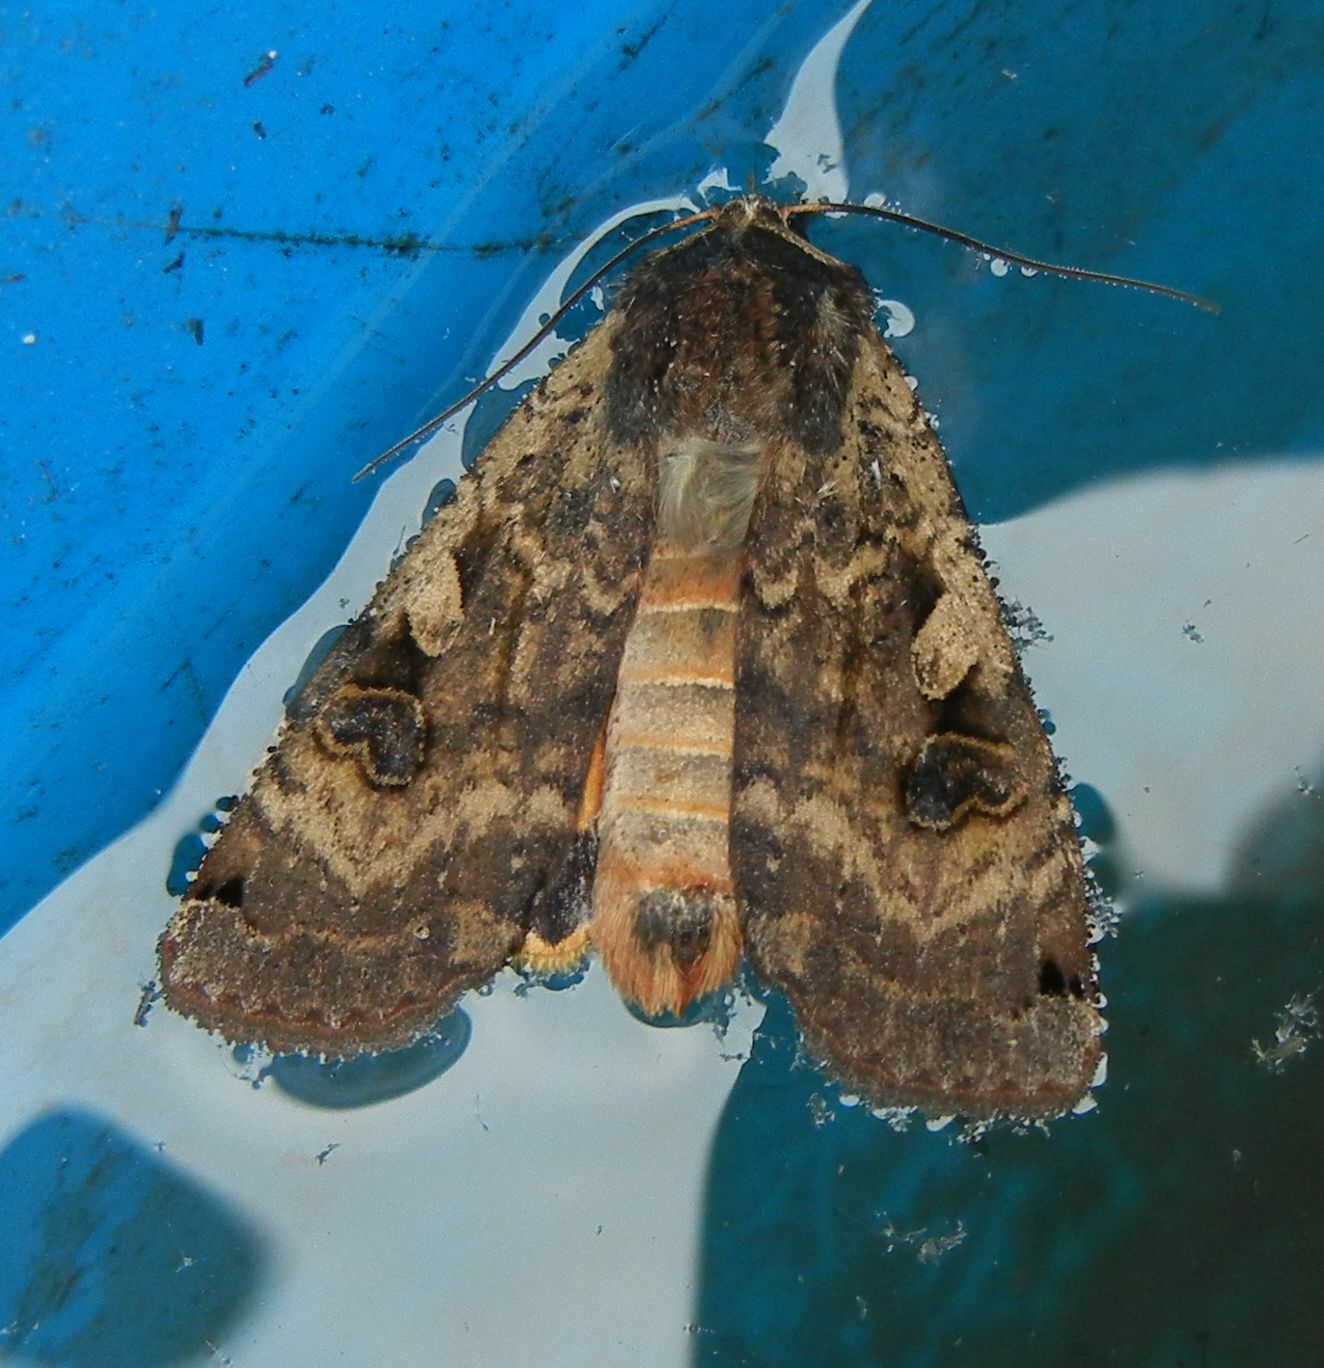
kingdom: Animalia
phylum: Arthropoda
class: Insecta
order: Lepidoptera
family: Noctuidae
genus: Noctua
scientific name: Noctua pronuba
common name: Large yellow underwing
